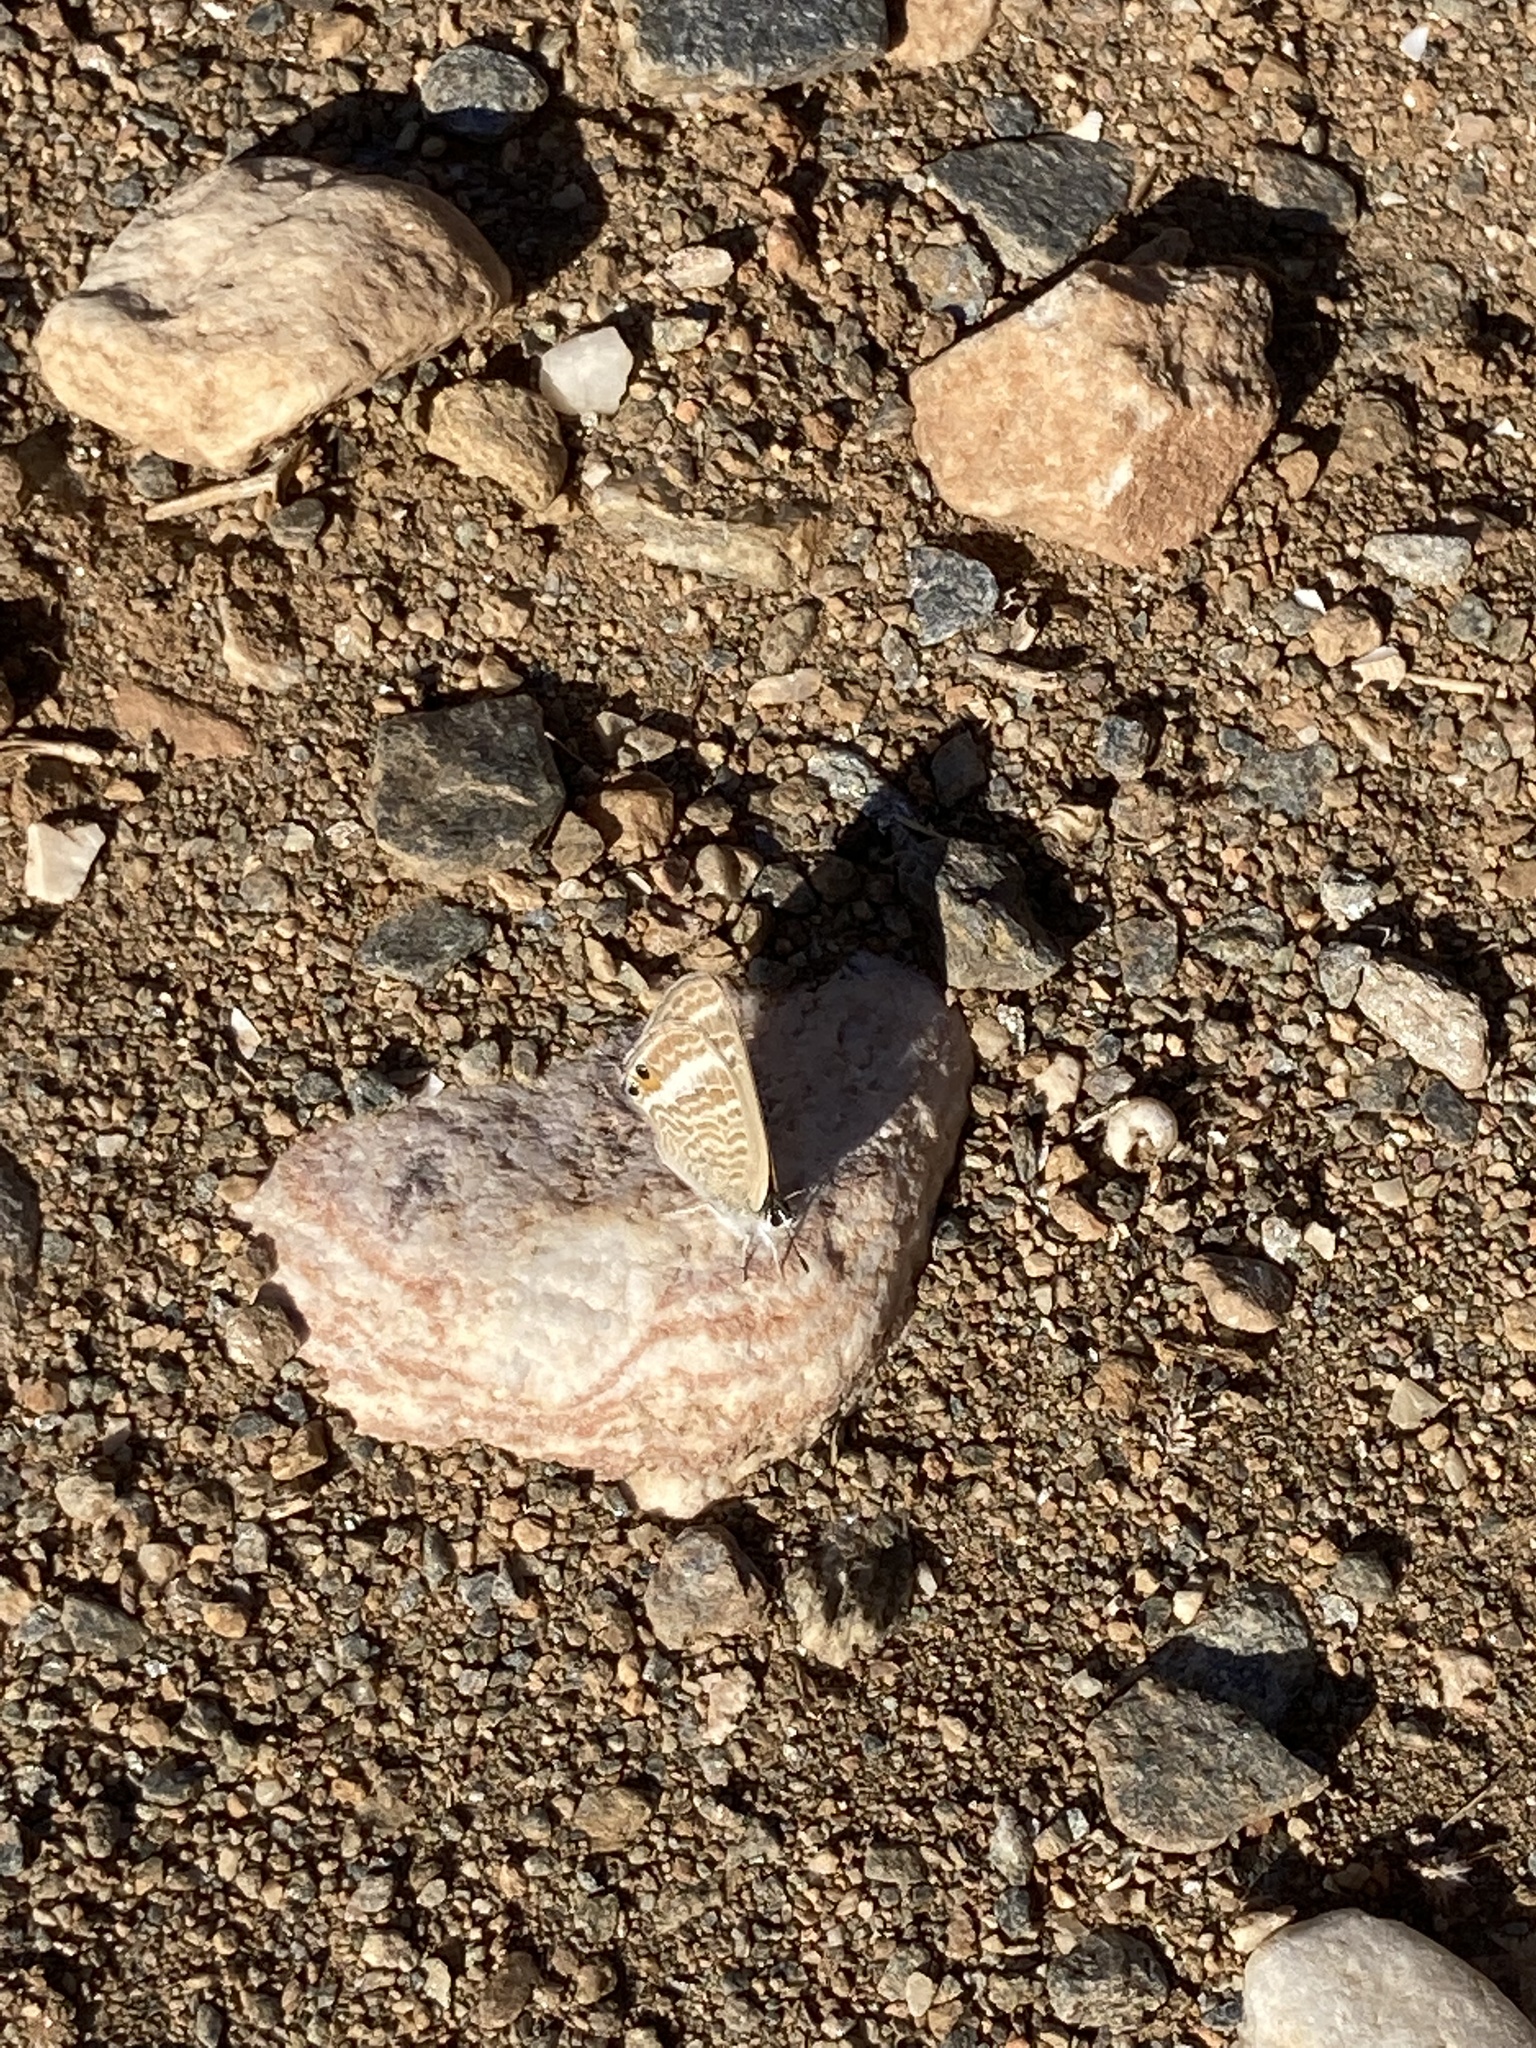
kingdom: Animalia
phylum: Arthropoda
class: Insecta
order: Lepidoptera
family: Lycaenidae
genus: Lampides
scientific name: Lampides boeticus
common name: Long-tailed blue
